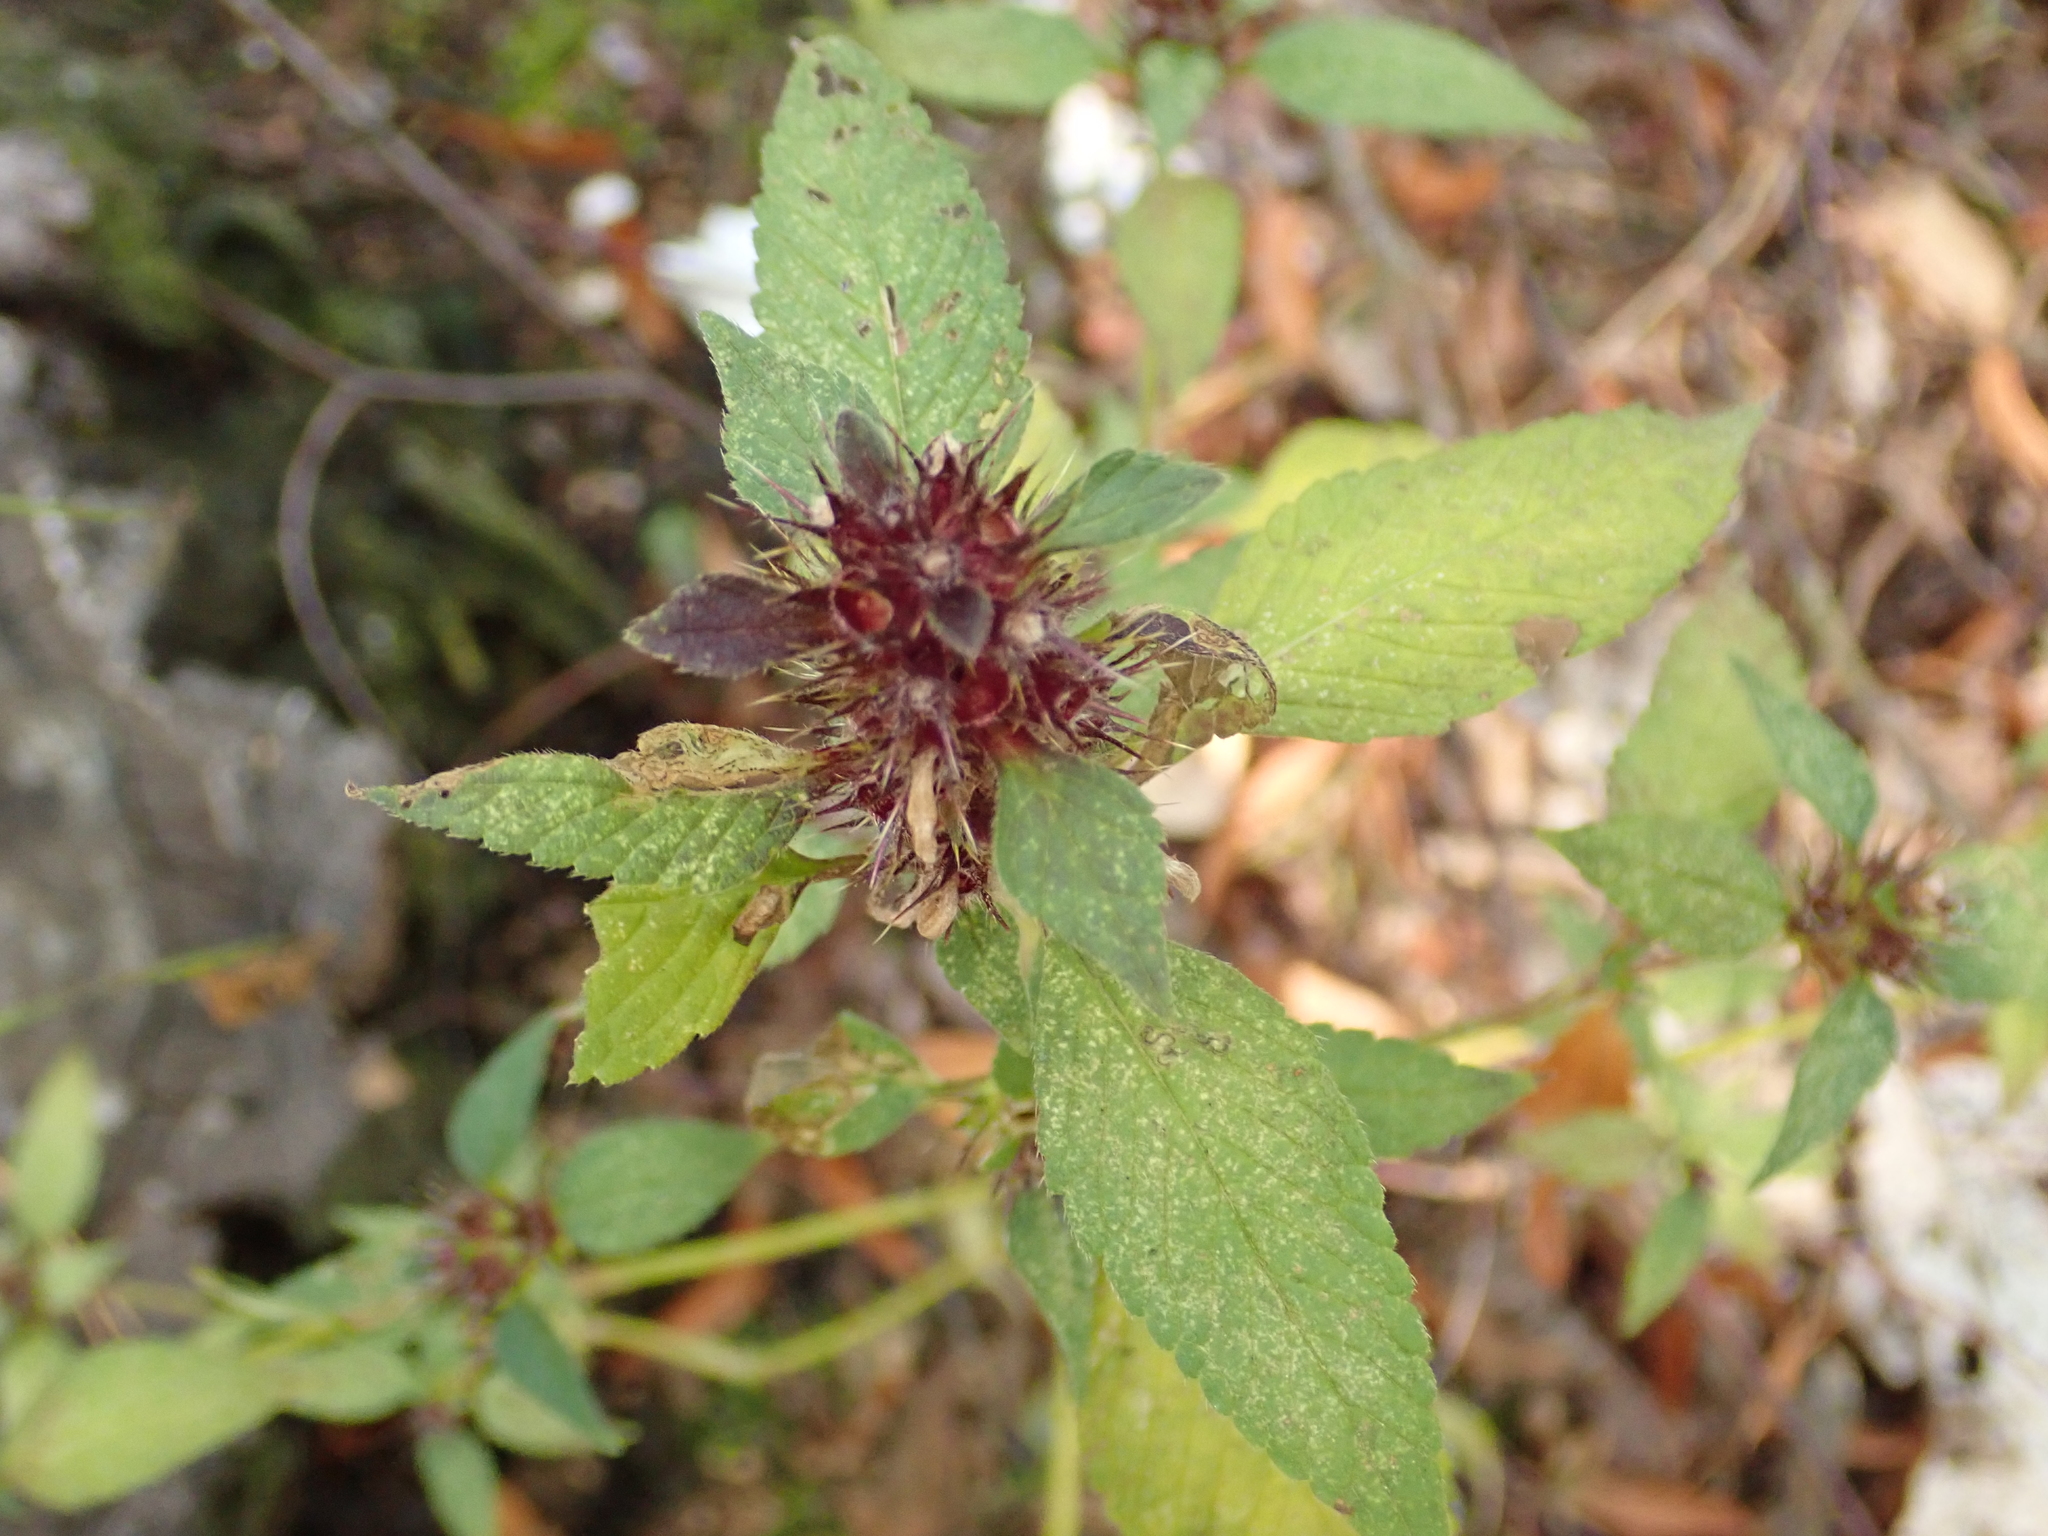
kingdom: Plantae
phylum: Tracheophyta
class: Magnoliopsida
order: Lamiales
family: Lamiaceae
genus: Galeopsis
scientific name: Galeopsis tetrahit
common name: Common hemp-nettle
